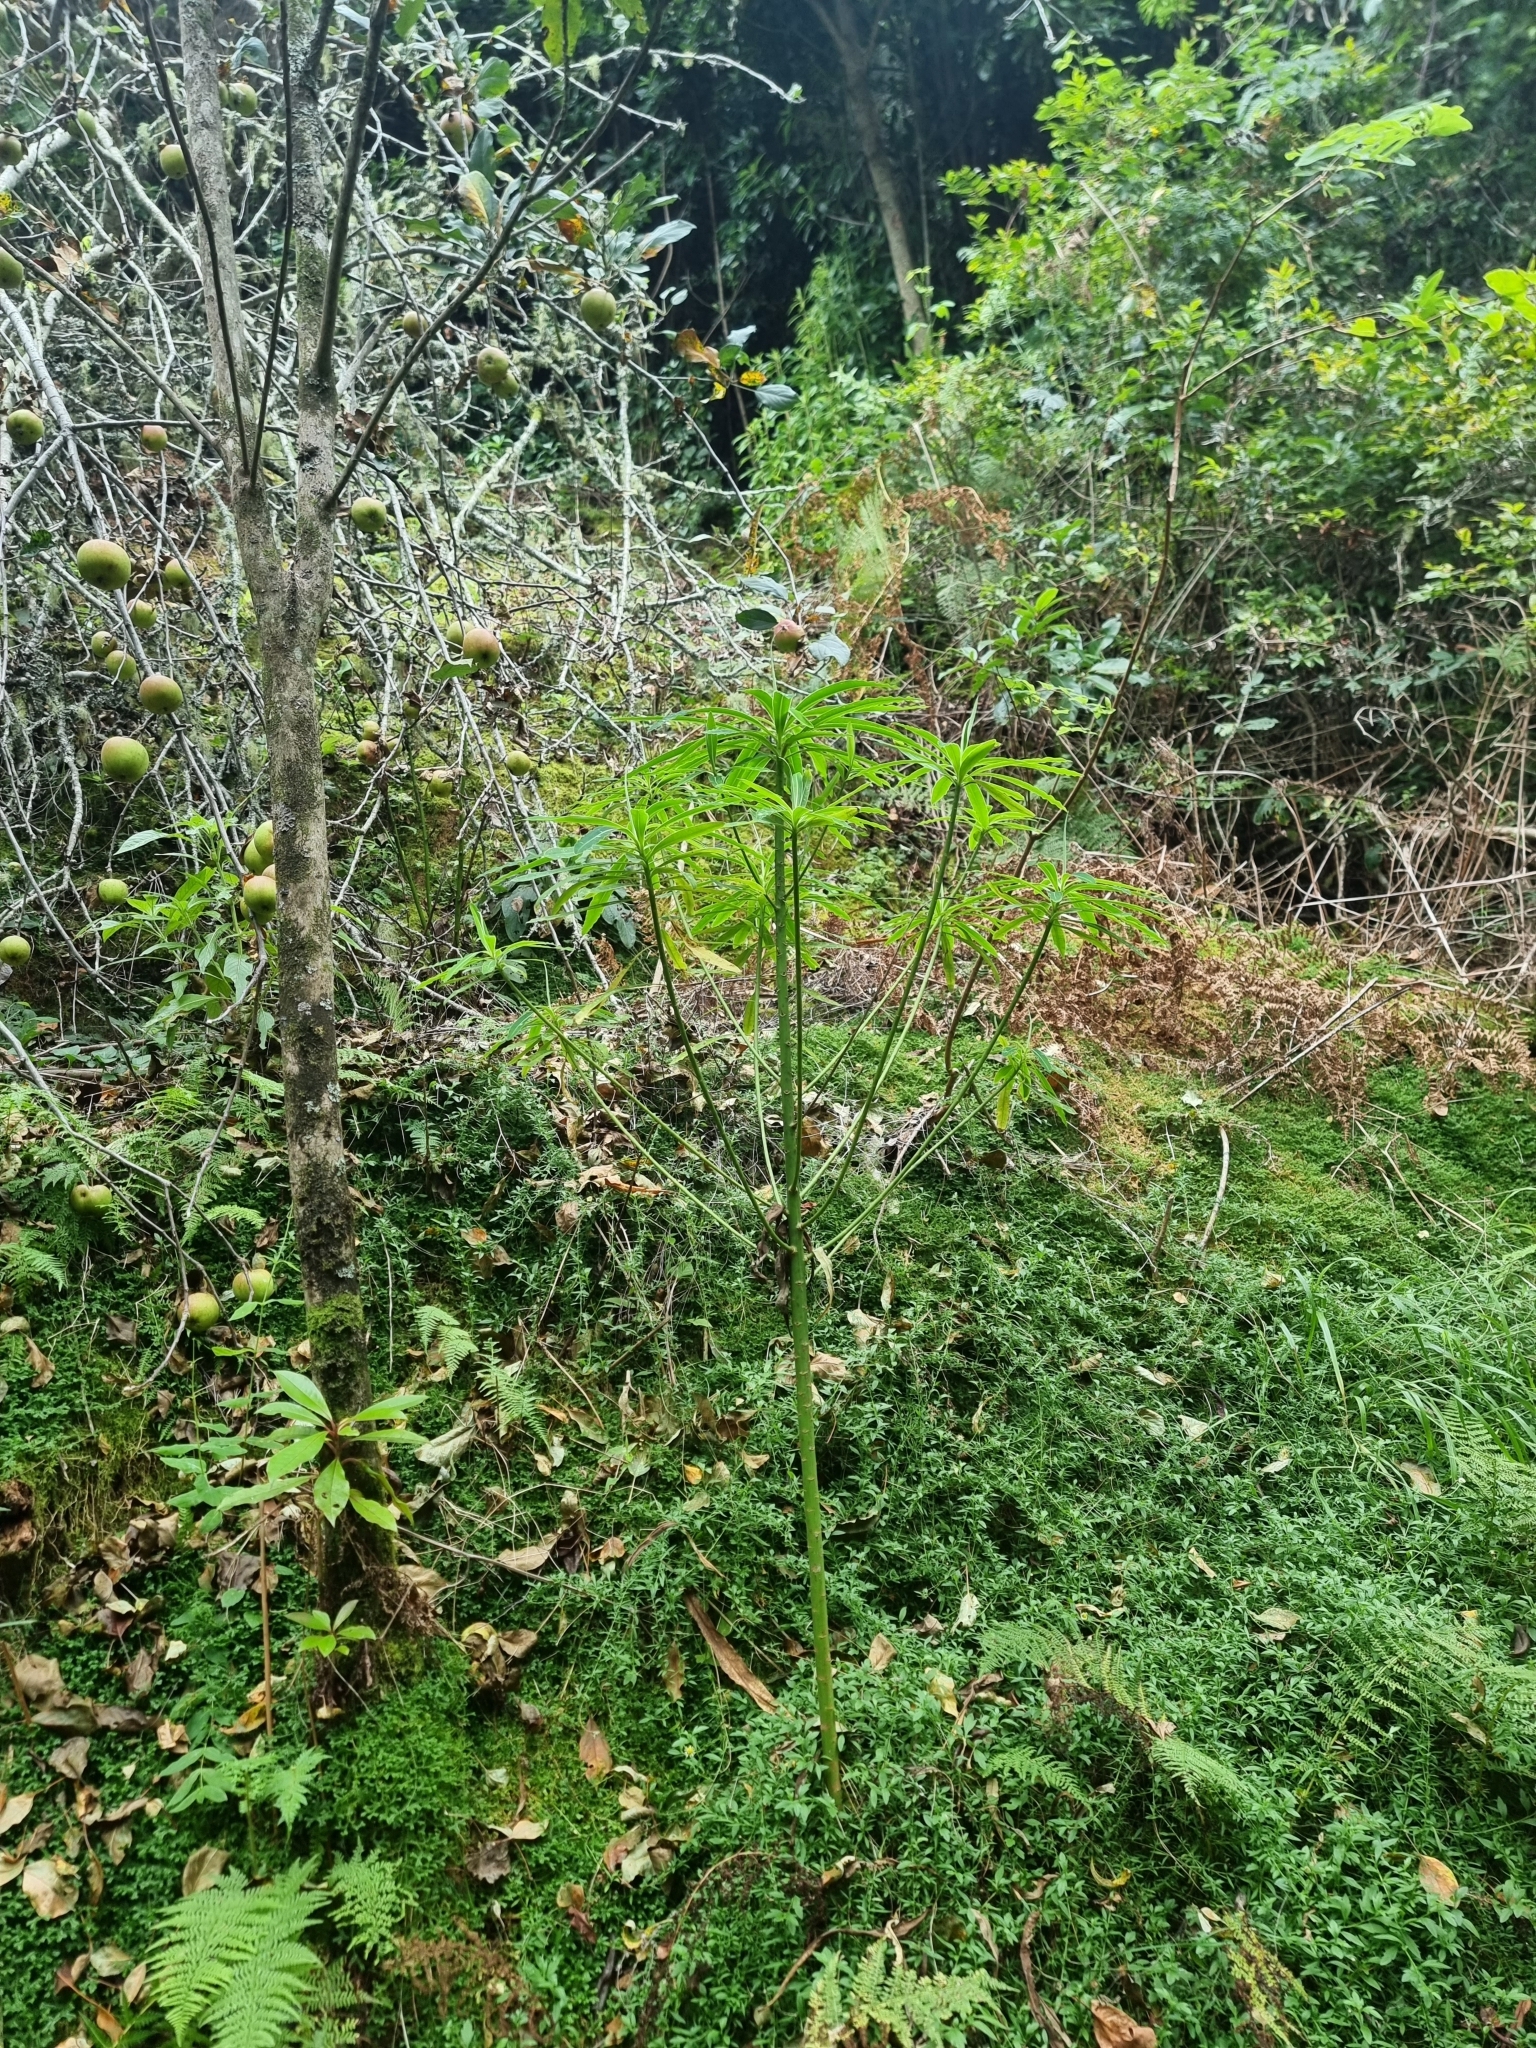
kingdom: Plantae
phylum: Tracheophyta
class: Magnoliopsida
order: Malpighiales
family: Euphorbiaceae
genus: Euphorbia
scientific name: Euphorbia mellifera
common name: Canary spurge
